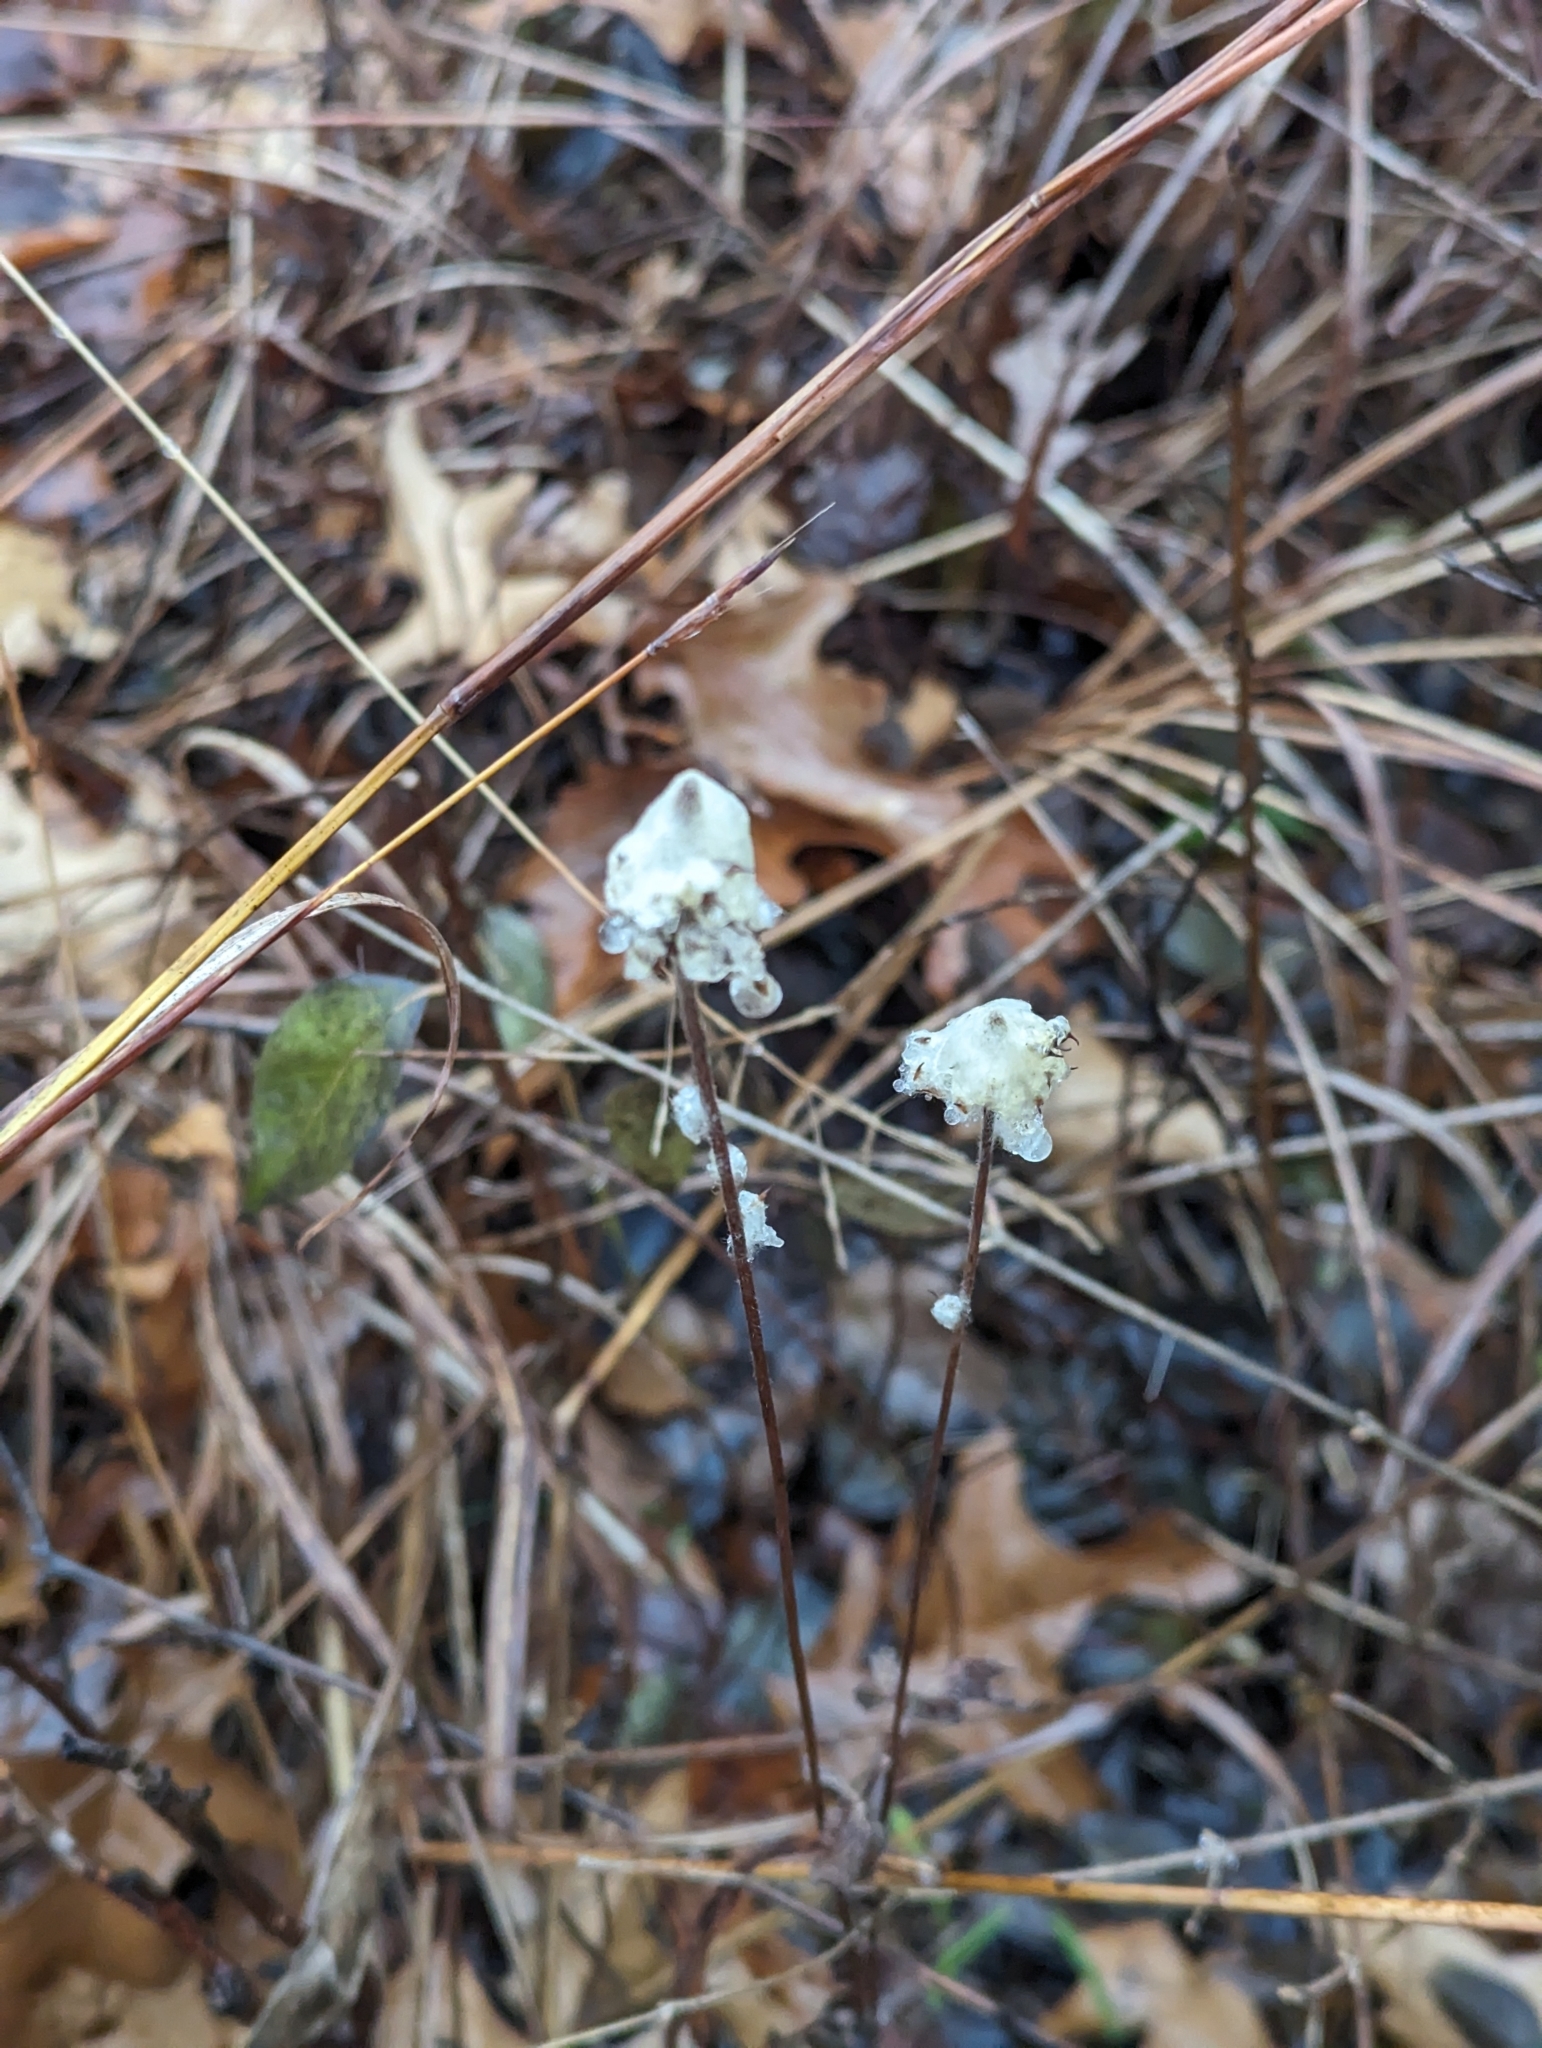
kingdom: Plantae
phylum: Tracheophyta
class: Magnoliopsida
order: Ranunculales
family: Ranunculaceae
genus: Anemone
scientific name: Anemone virginiana
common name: Tall anemone
